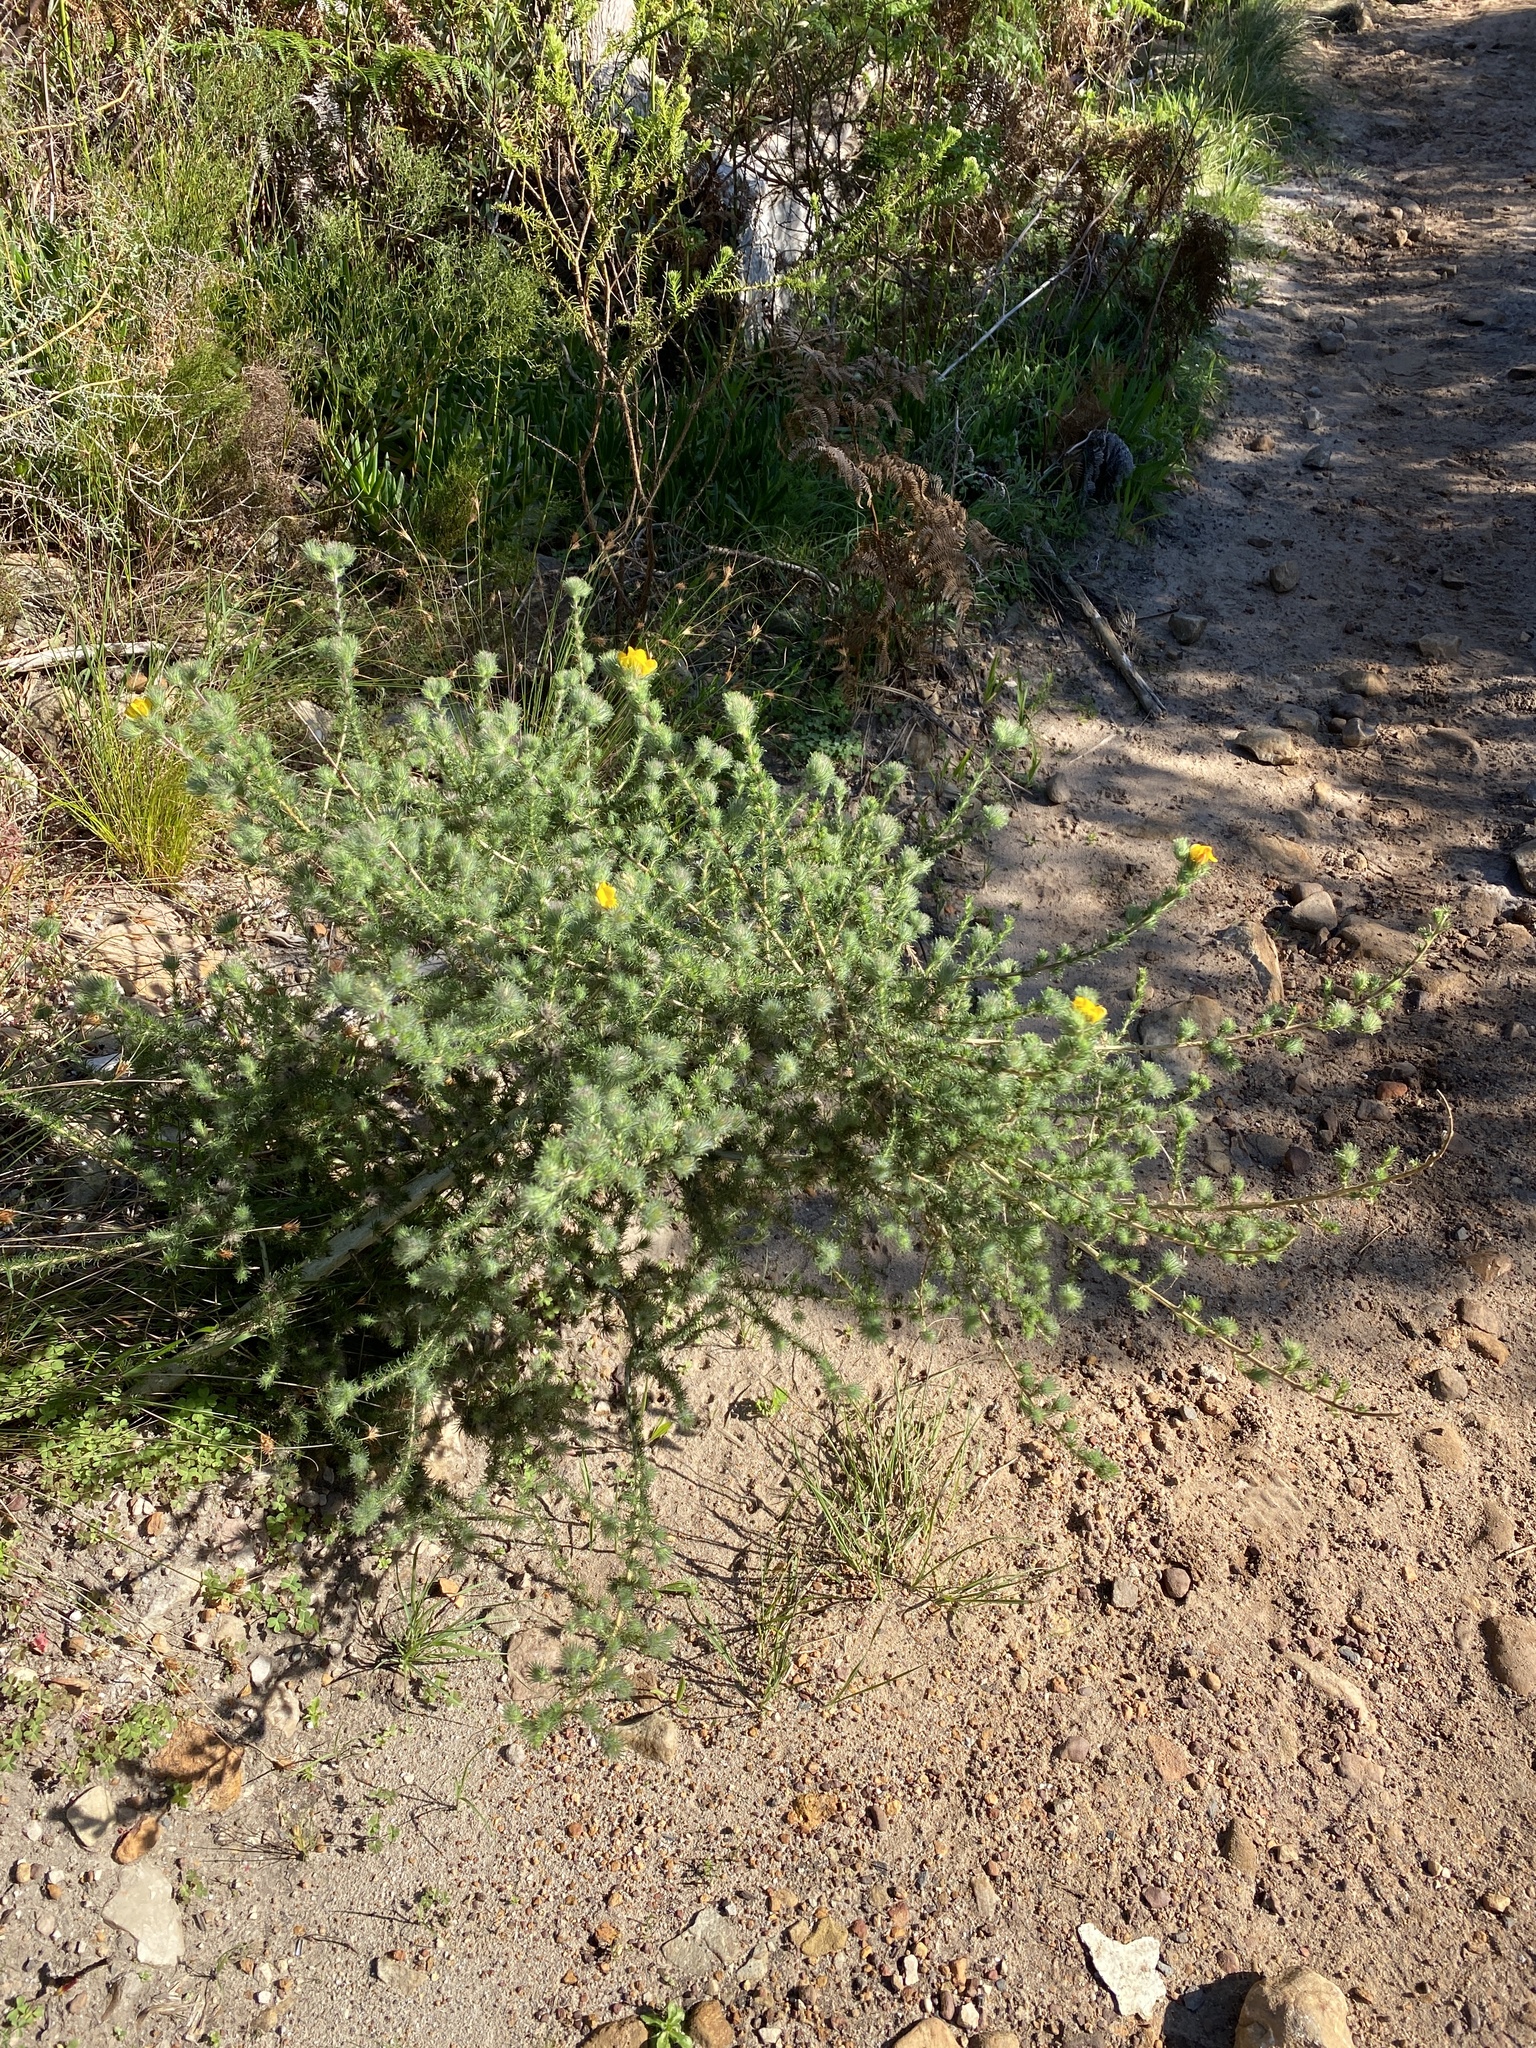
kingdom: Plantae
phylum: Tracheophyta
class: Magnoliopsida
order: Fabales
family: Fabaceae
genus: Aspalathus
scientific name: Aspalathus ciliaris
